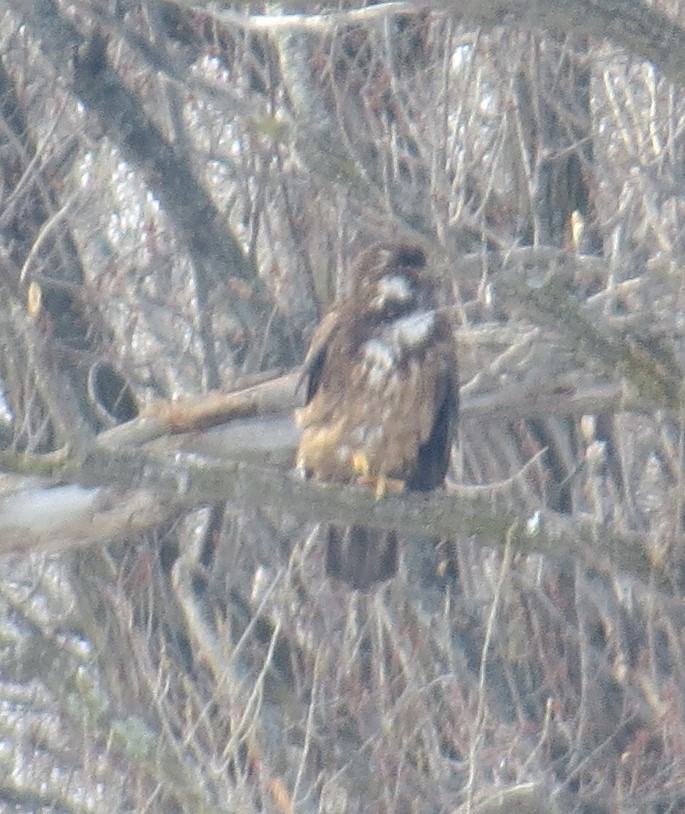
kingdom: Animalia
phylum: Chordata
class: Aves
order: Accipitriformes
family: Accipitridae
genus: Haliaeetus
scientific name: Haliaeetus leucocephalus
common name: Bald eagle
